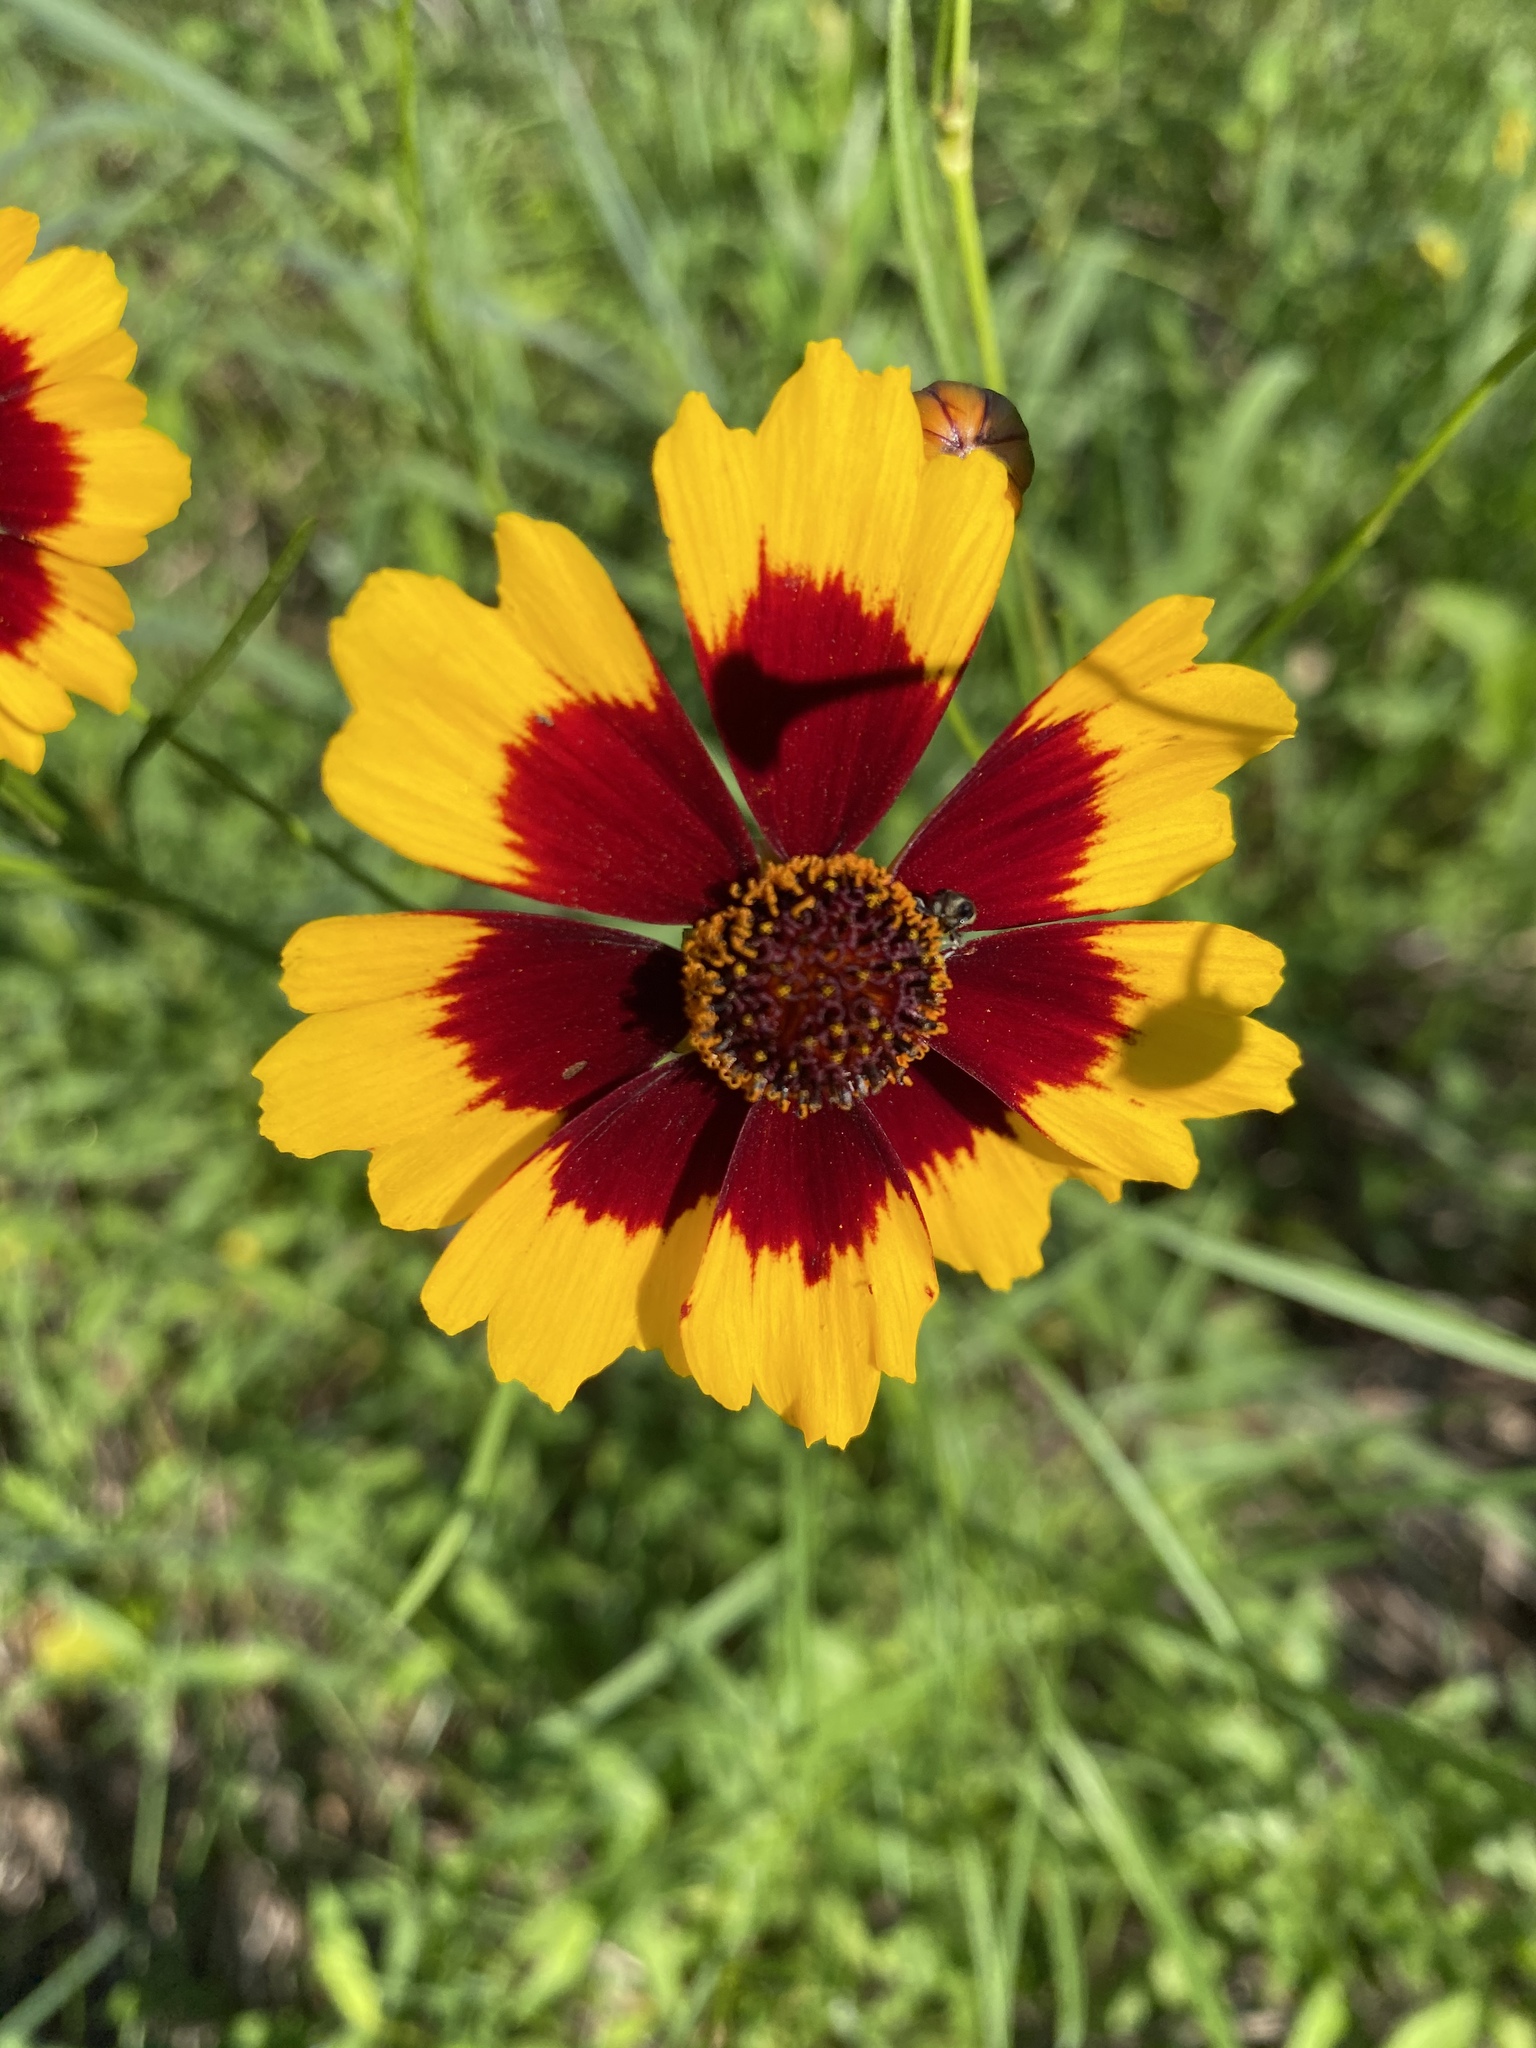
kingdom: Plantae
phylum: Tracheophyta
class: Magnoliopsida
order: Asterales
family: Asteraceae
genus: Coreopsis
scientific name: Coreopsis tinctoria
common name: Garden tickseed
